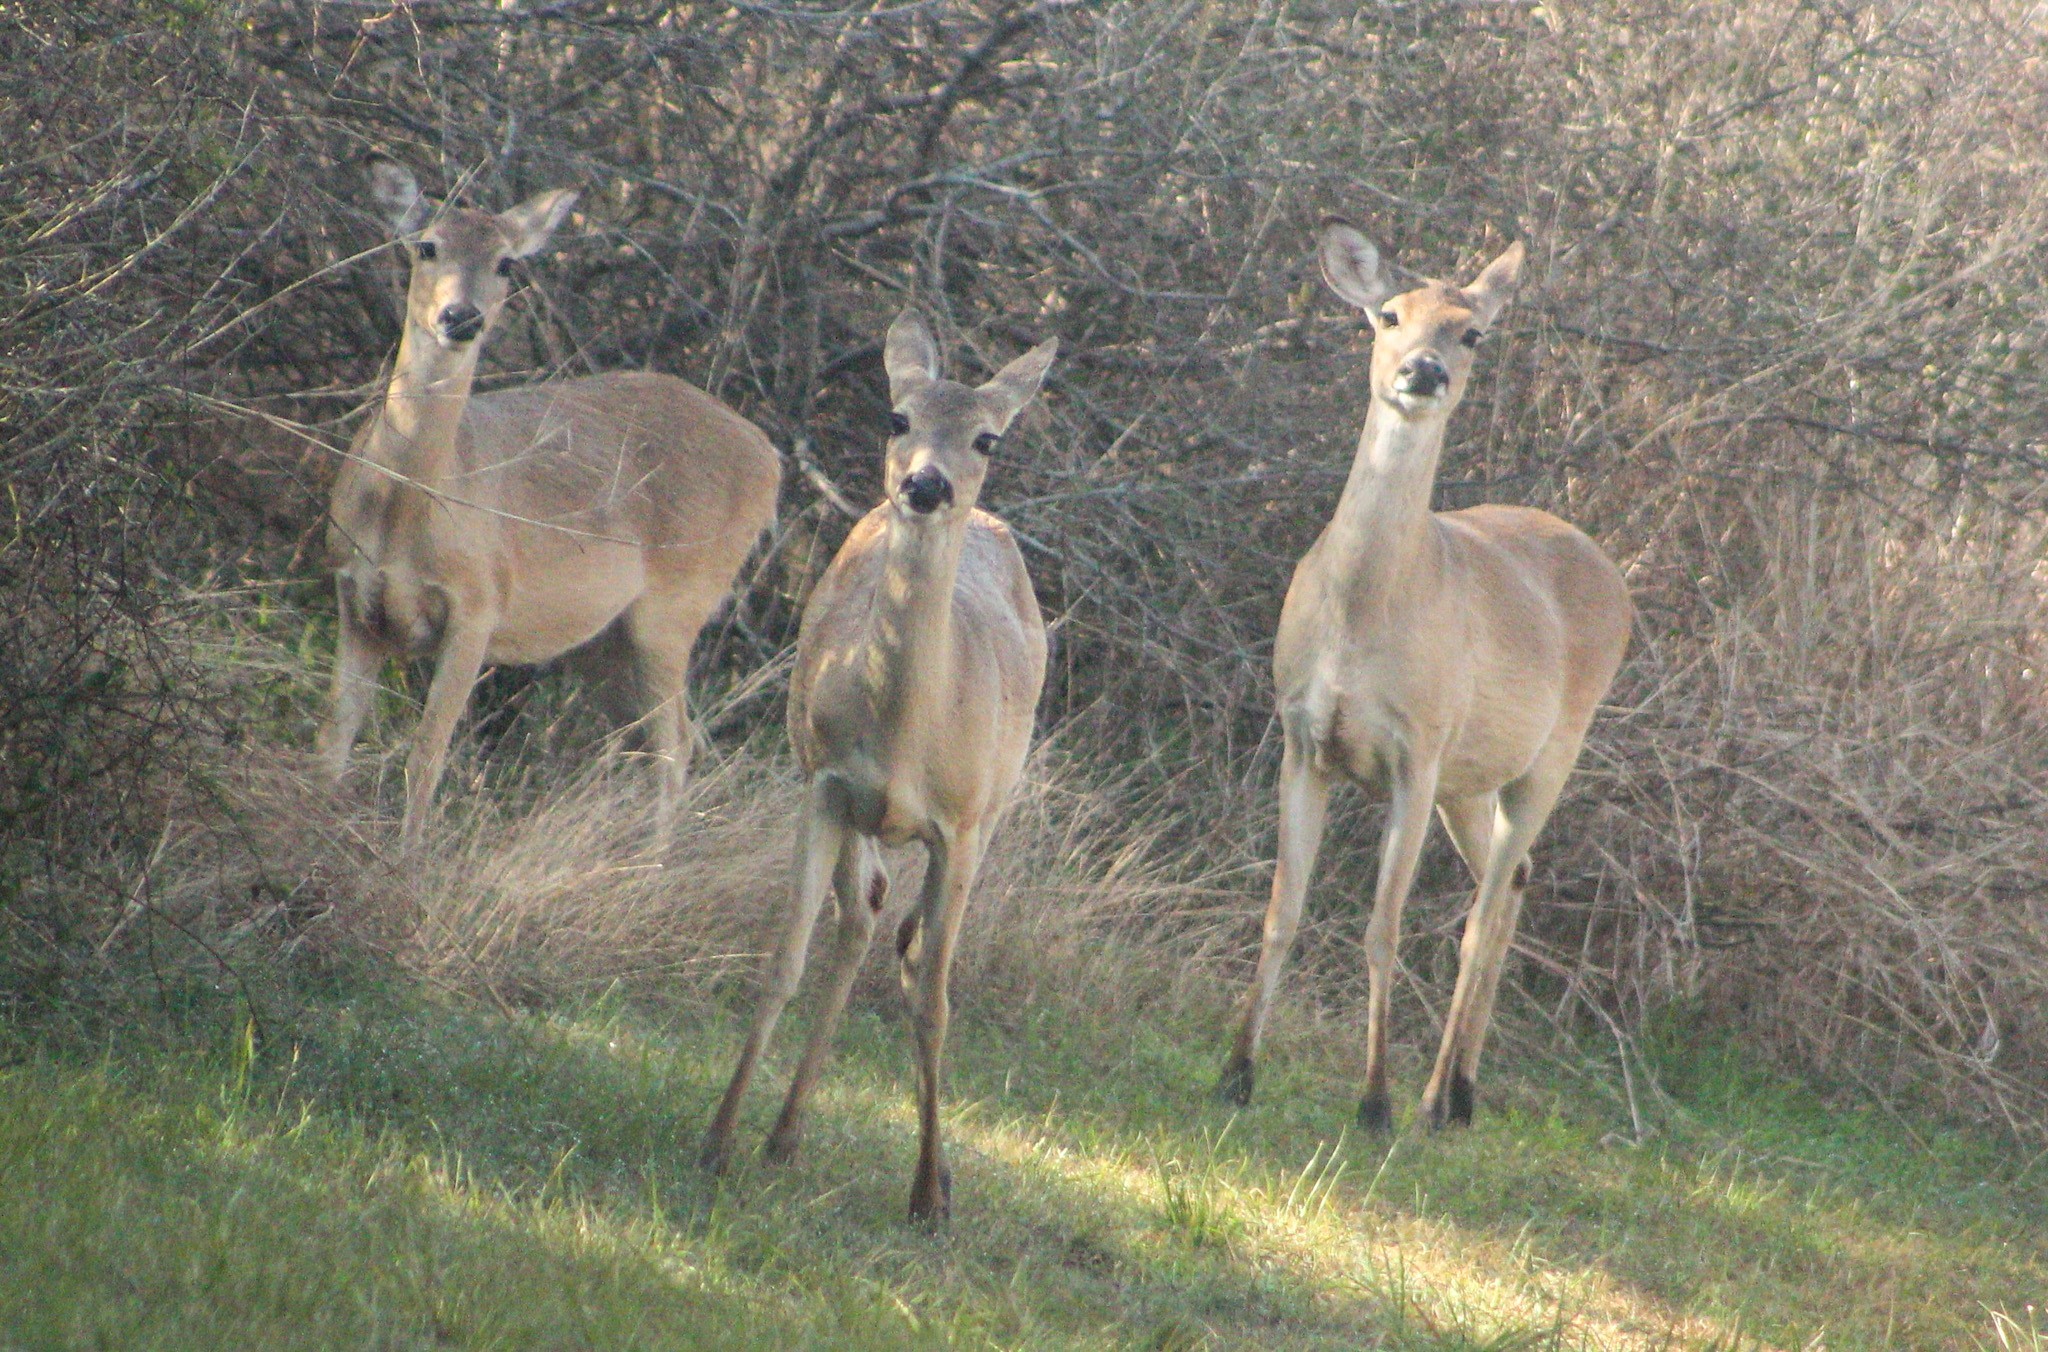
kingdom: Animalia
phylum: Chordata
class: Mammalia
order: Artiodactyla
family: Cervidae
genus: Odocoileus
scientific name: Odocoileus virginianus
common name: White-tailed deer
